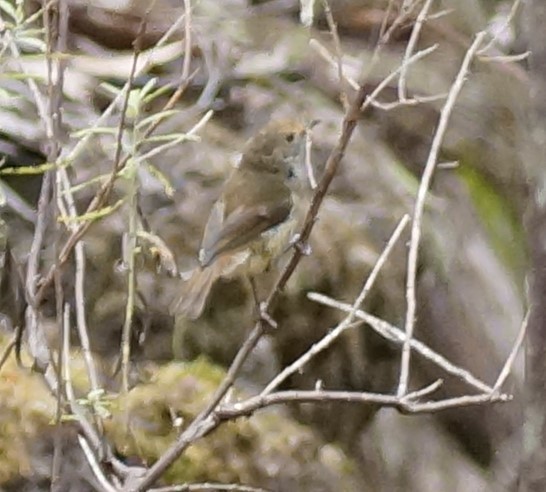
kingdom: Animalia
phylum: Chordata
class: Aves
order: Passeriformes
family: Acanthizidae
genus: Acanthiza
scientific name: Acanthiza pusilla
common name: Brown thornbill
